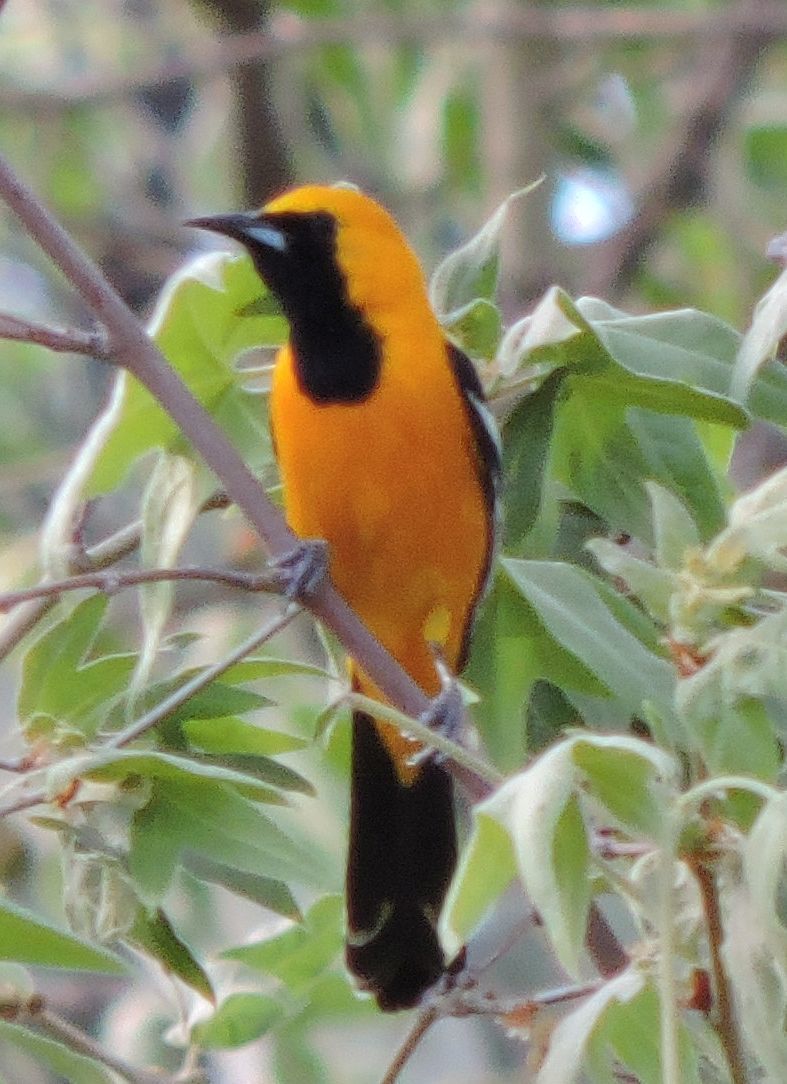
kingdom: Animalia
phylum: Chordata
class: Aves
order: Passeriformes
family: Icteridae
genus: Icterus
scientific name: Icterus cucullatus
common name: Hooded oriole
